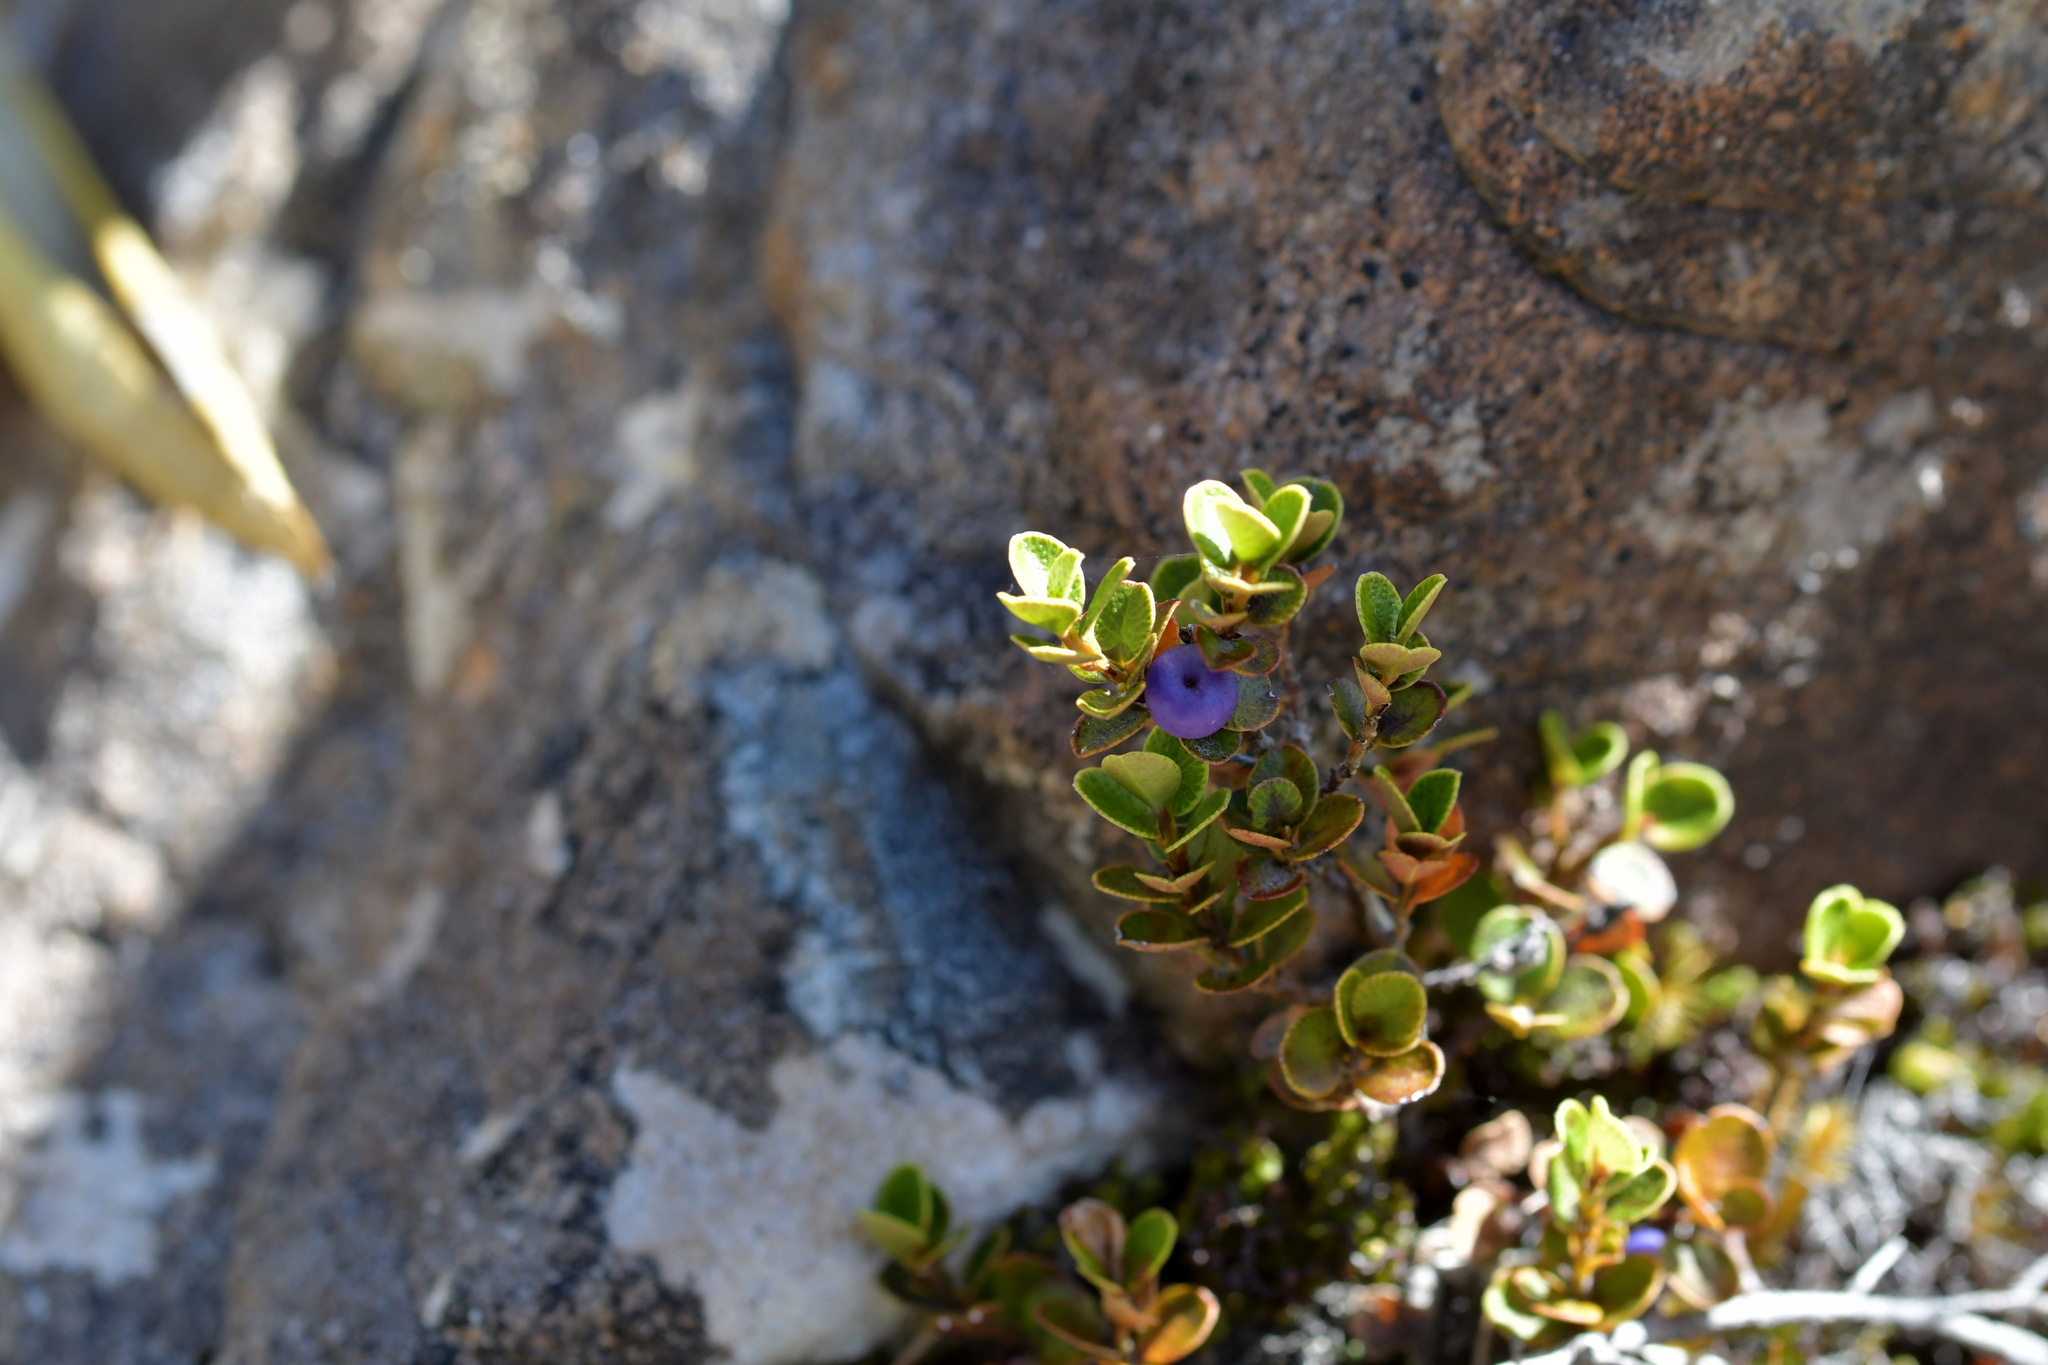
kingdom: Plantae
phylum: Tracheophyta
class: Magnoliopsida
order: Ericales
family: Primulaceae
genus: Myrsine
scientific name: Myrsine nummularia
